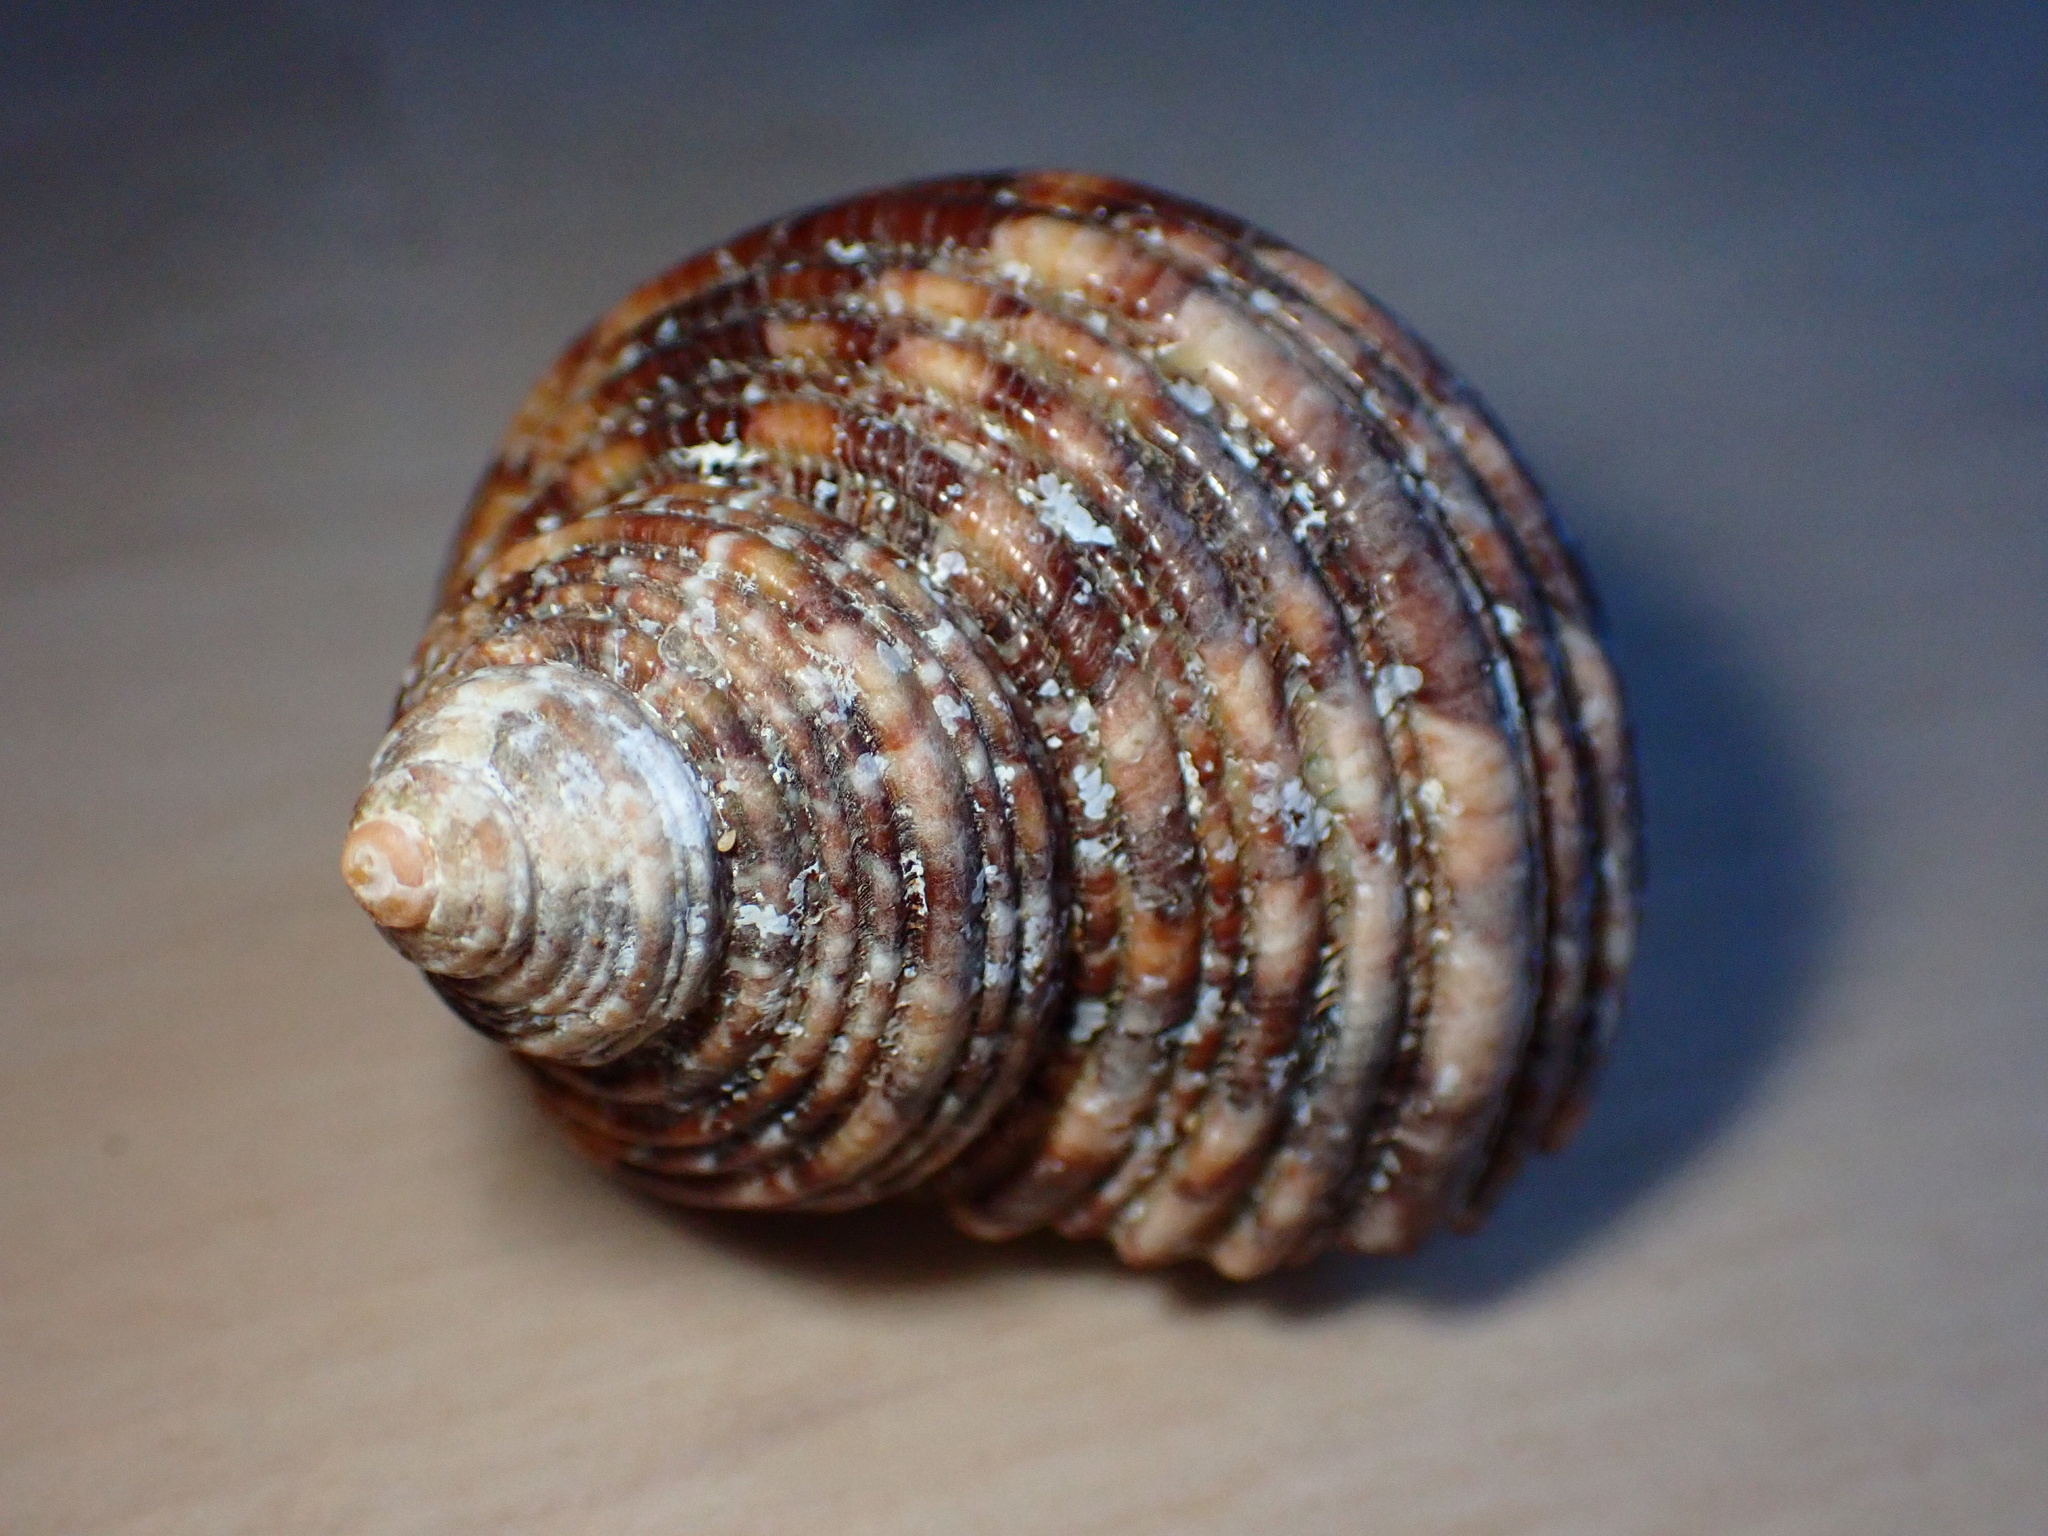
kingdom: Animalia
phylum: Mollusca
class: Gastropoda
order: Trochida
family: Turbinidae
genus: Turbo
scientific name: Turbo sandwicensis
